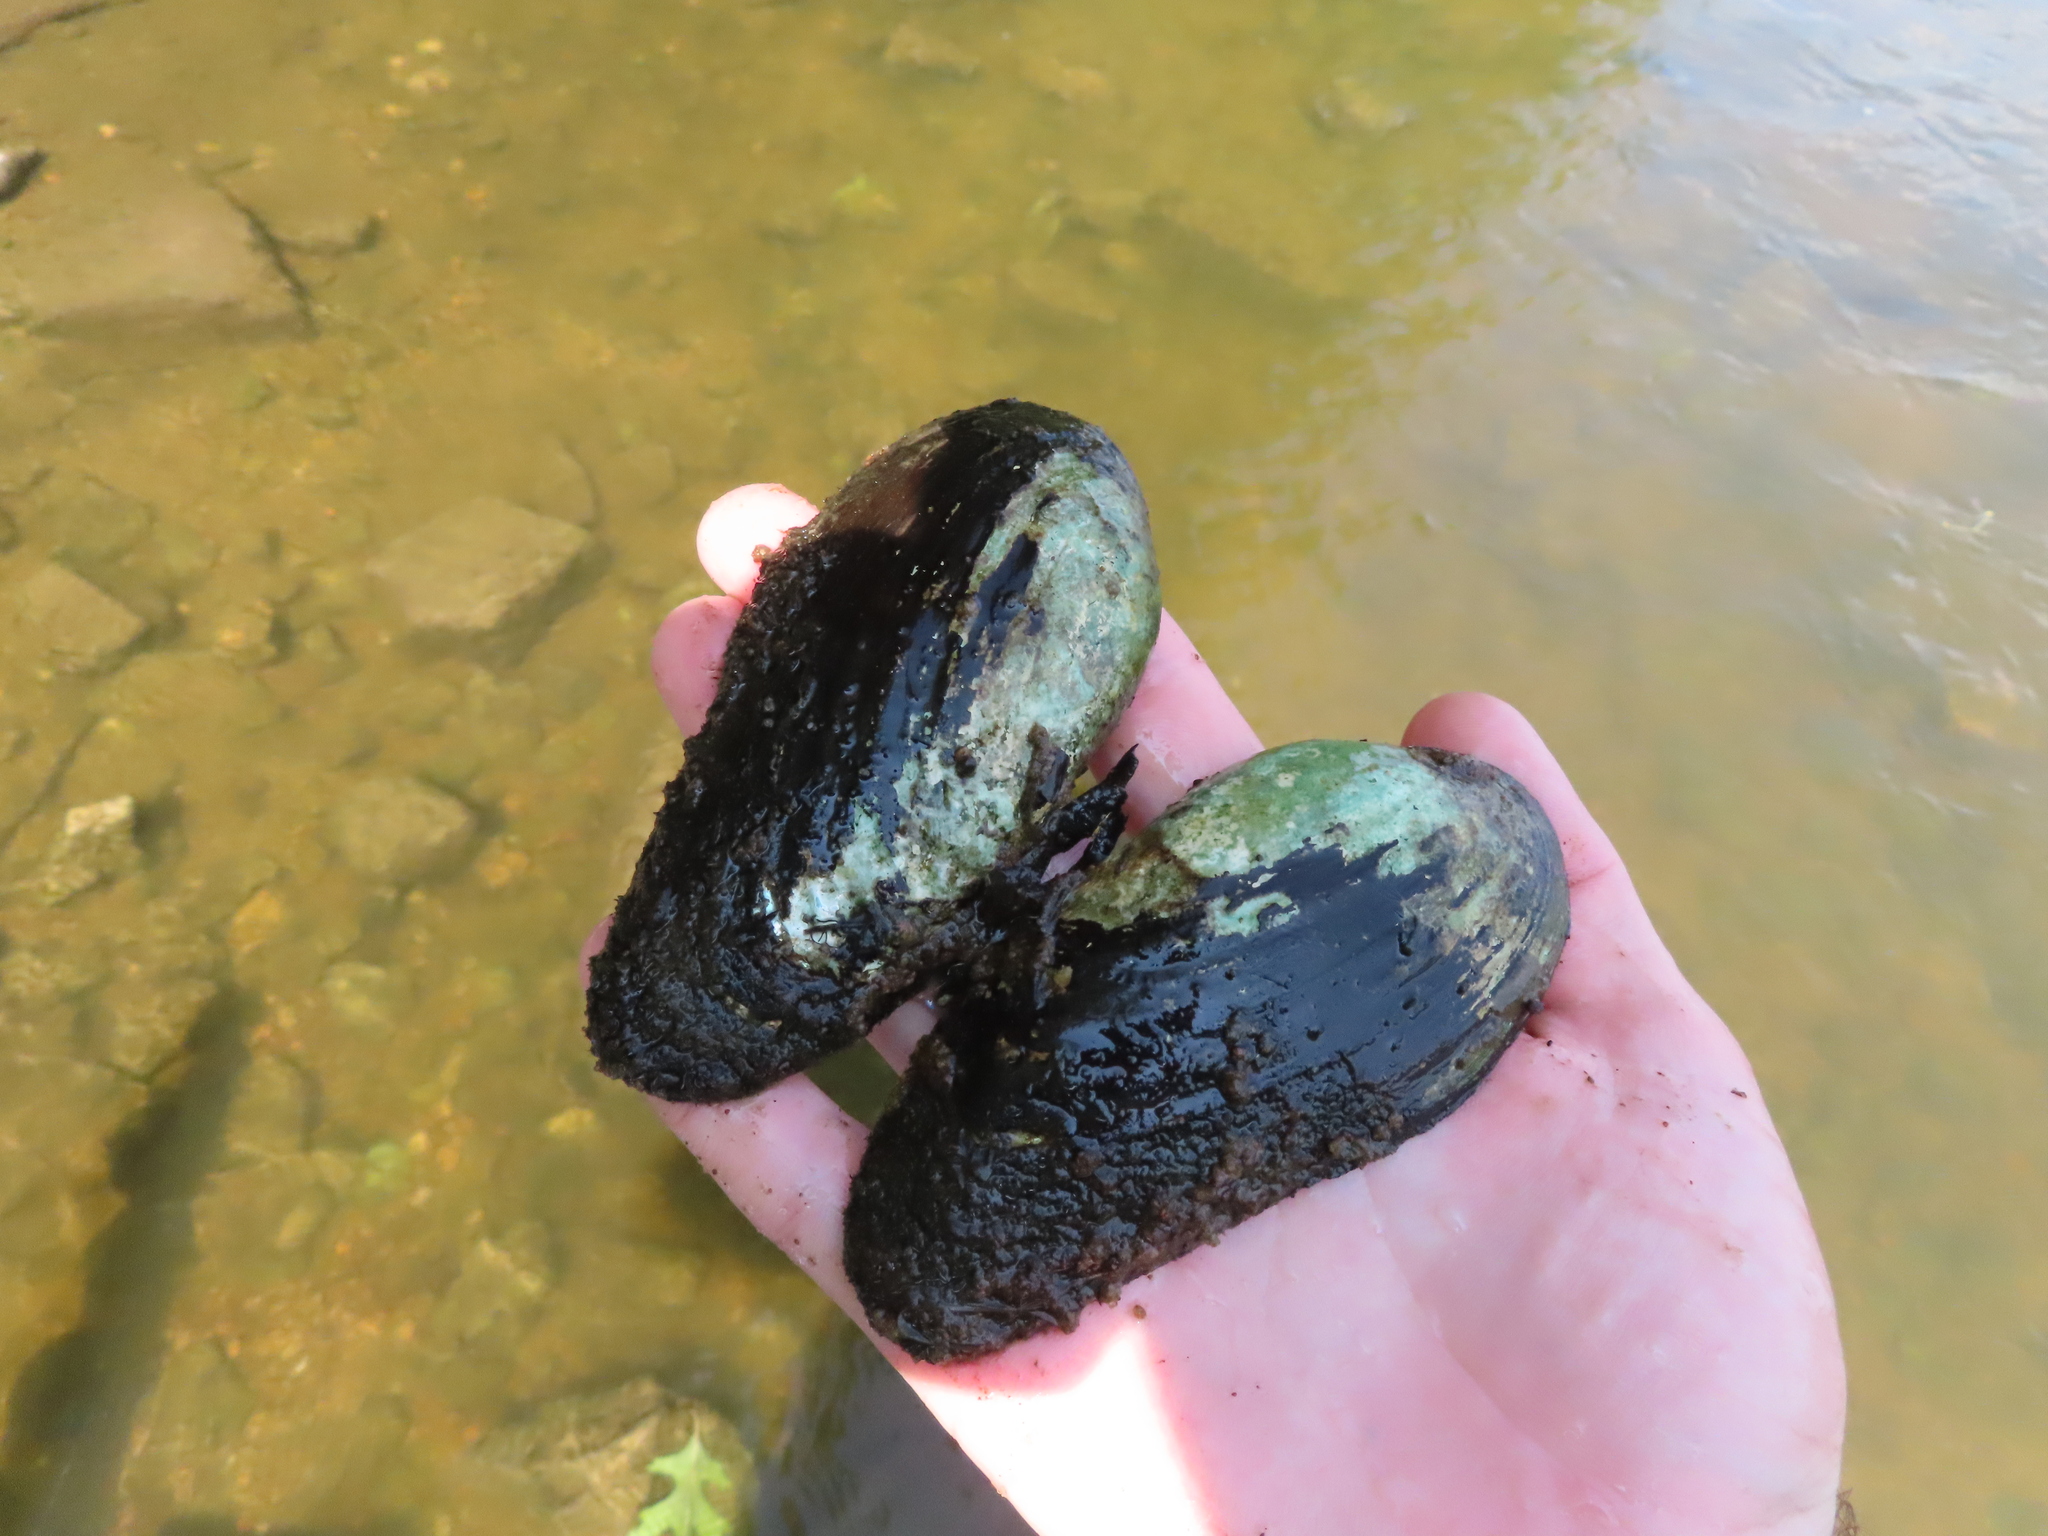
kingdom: Animalia
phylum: Mollusca
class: Bivalvia
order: Unionida
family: Unionidae
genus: Eurynia
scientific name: Eurynia dilatata
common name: Spike
